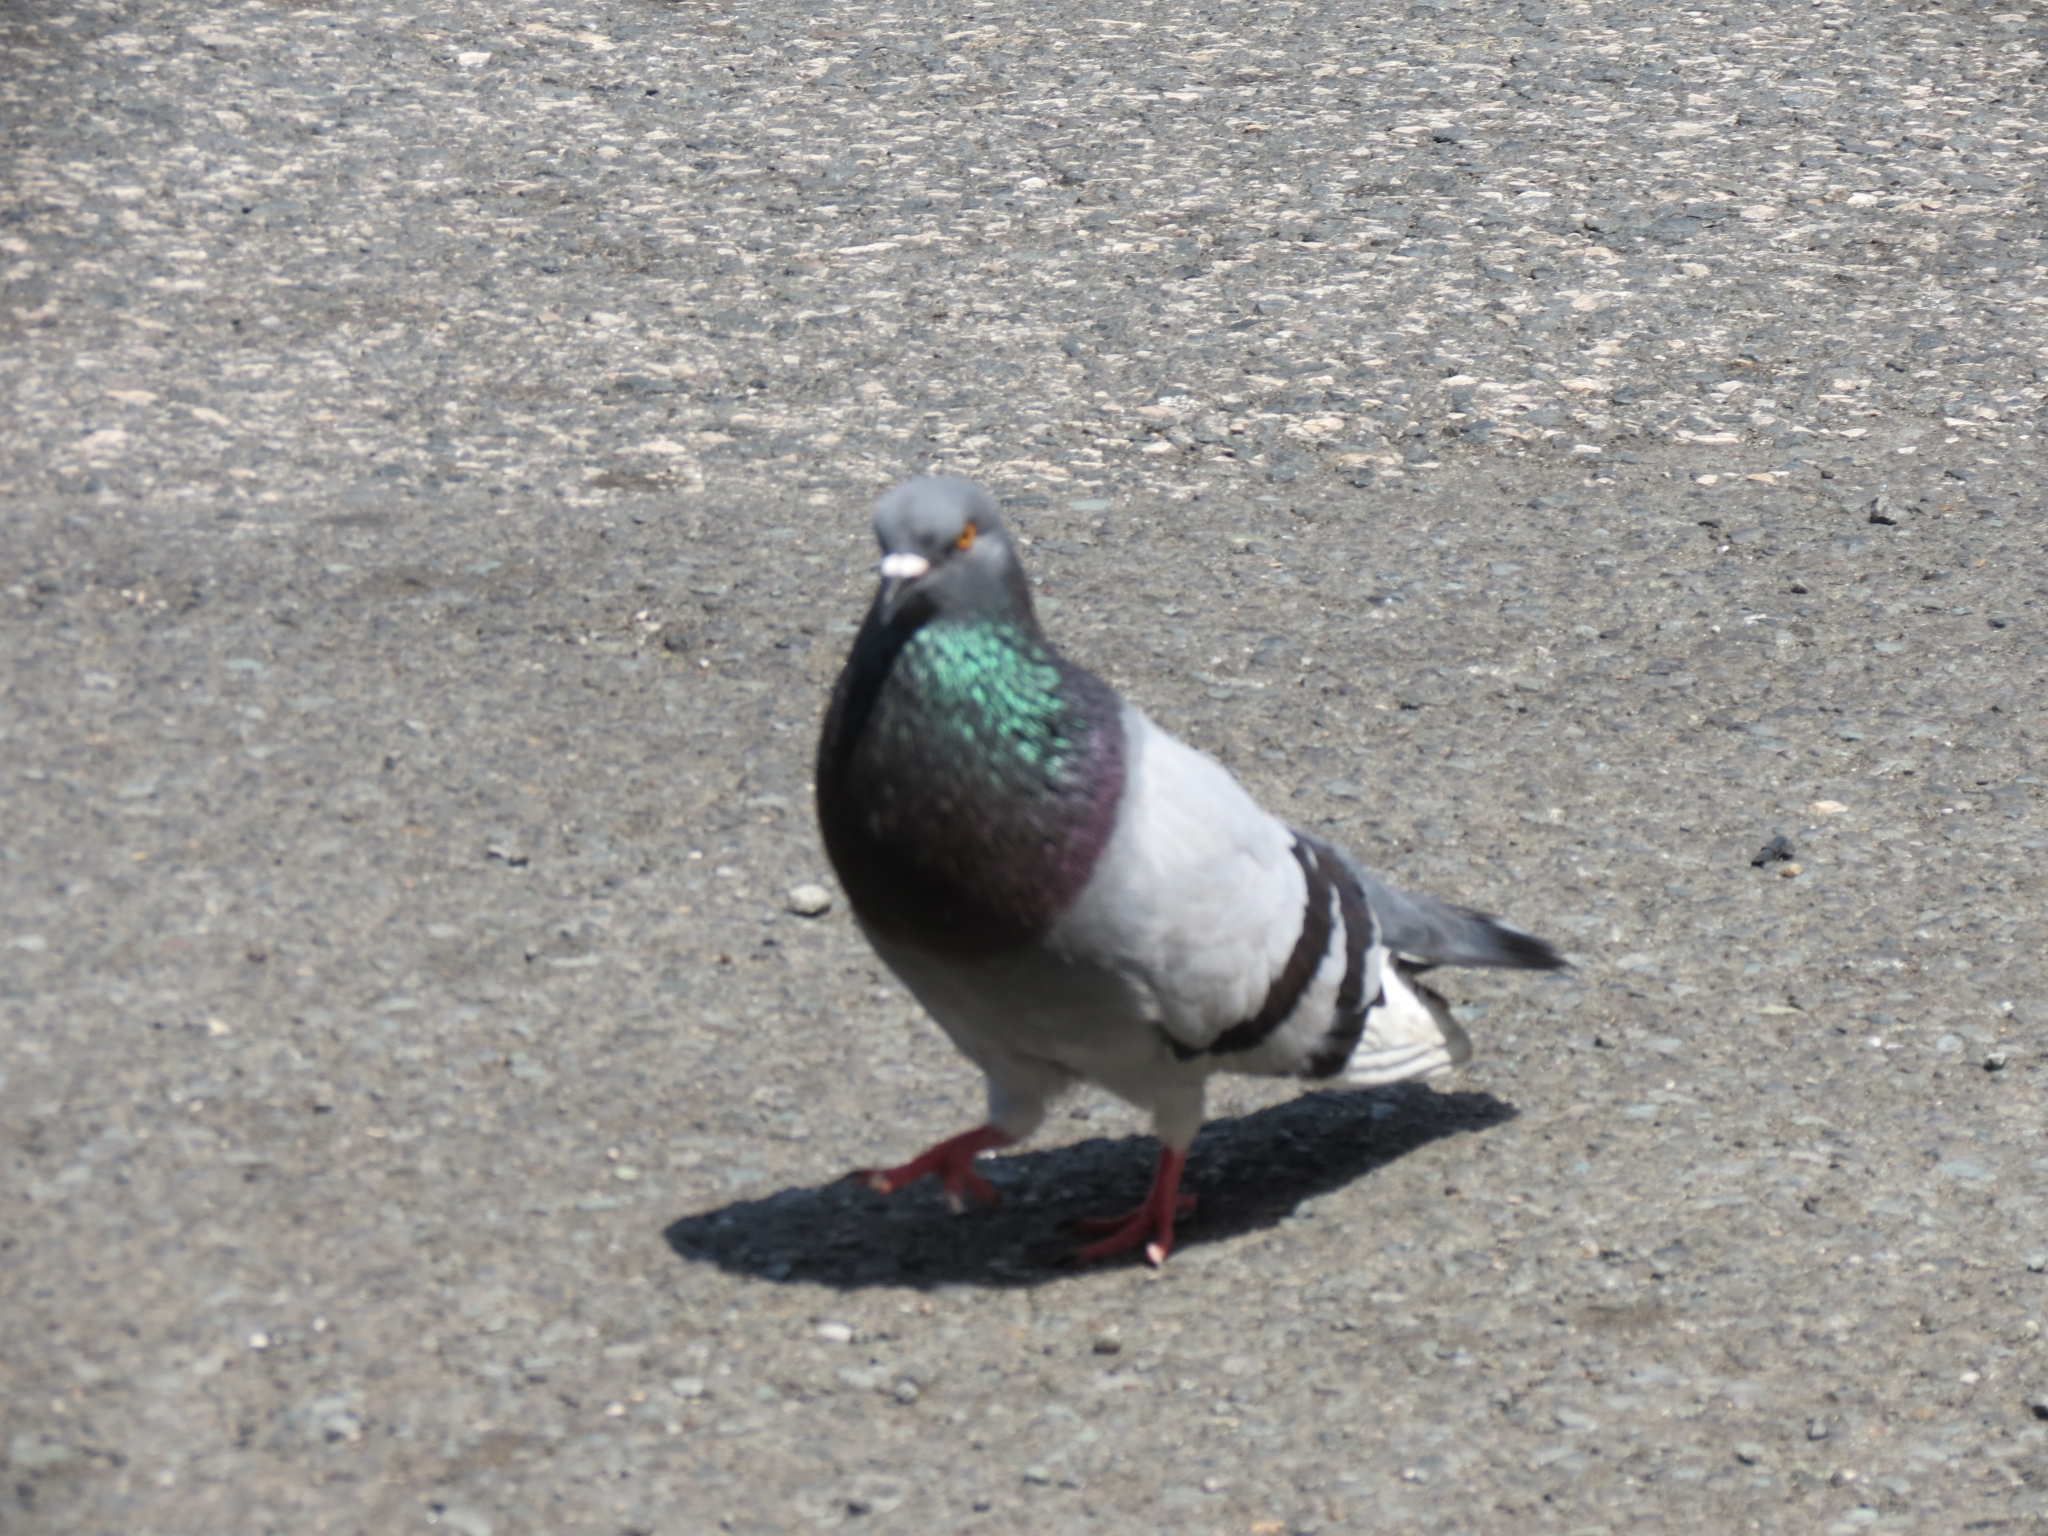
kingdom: Animalia
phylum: Chordata
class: Aves
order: Columbiformes
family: Columbidae
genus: Columba
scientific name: Columba livia
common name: Rock pigeon
